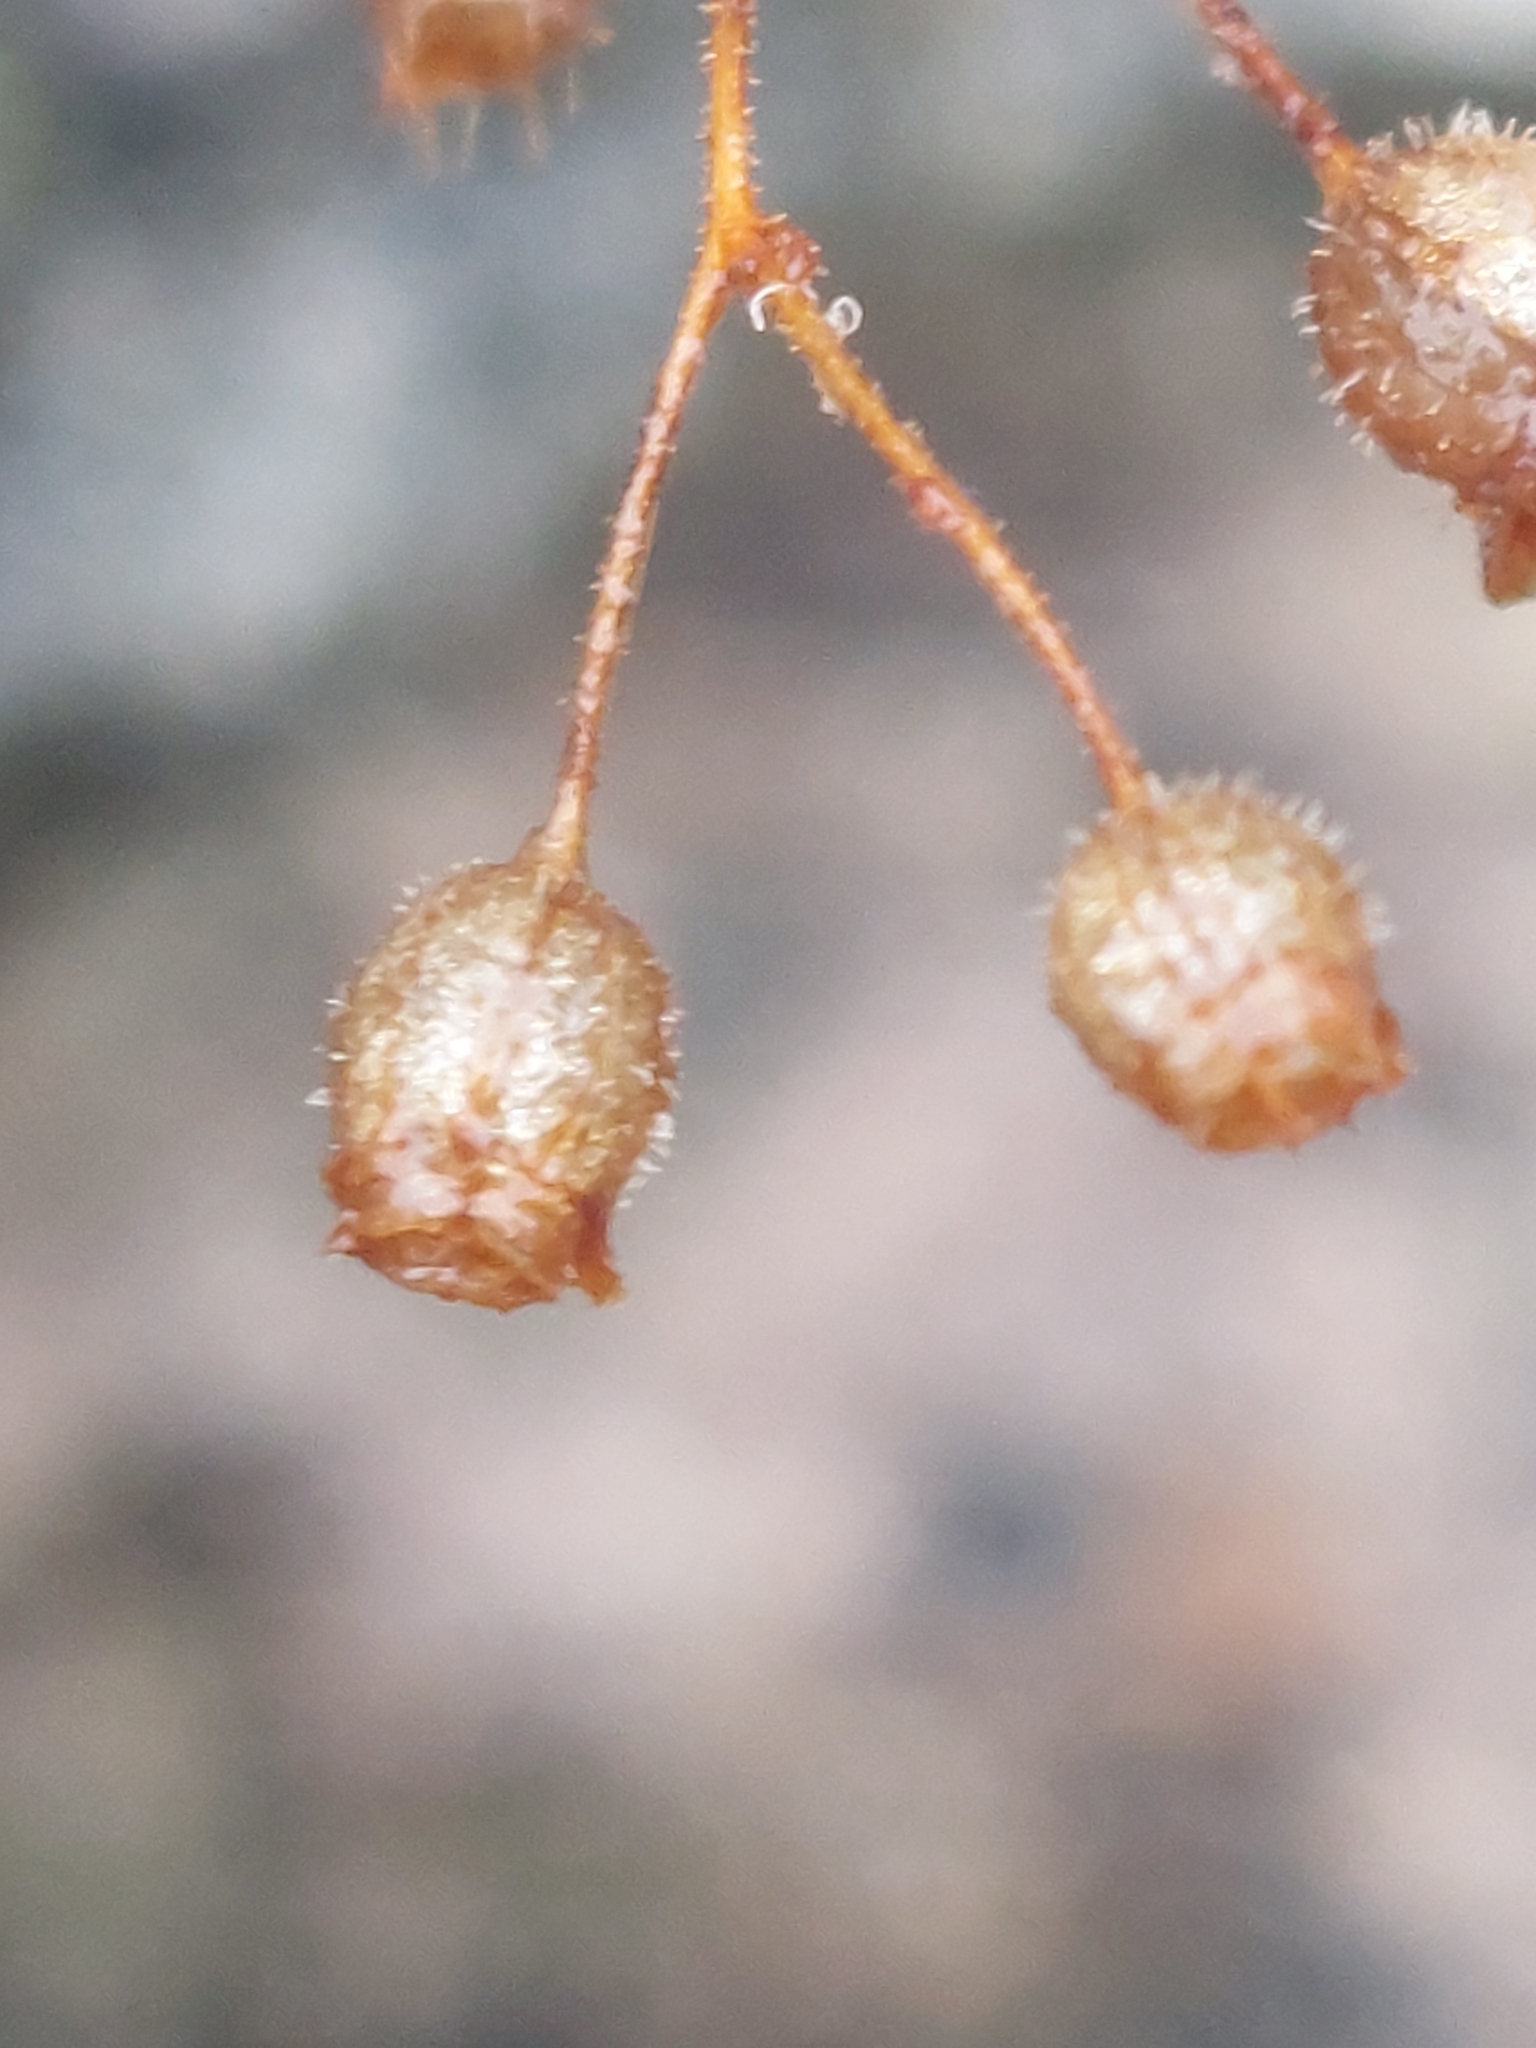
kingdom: Plantae
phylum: Tracheophyta
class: Magnoliopsida
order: Saxifragales
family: Saxifragaceae
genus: Saxifraga
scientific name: Saxifraga tridactylites
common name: Rue-leaved saxifrage
